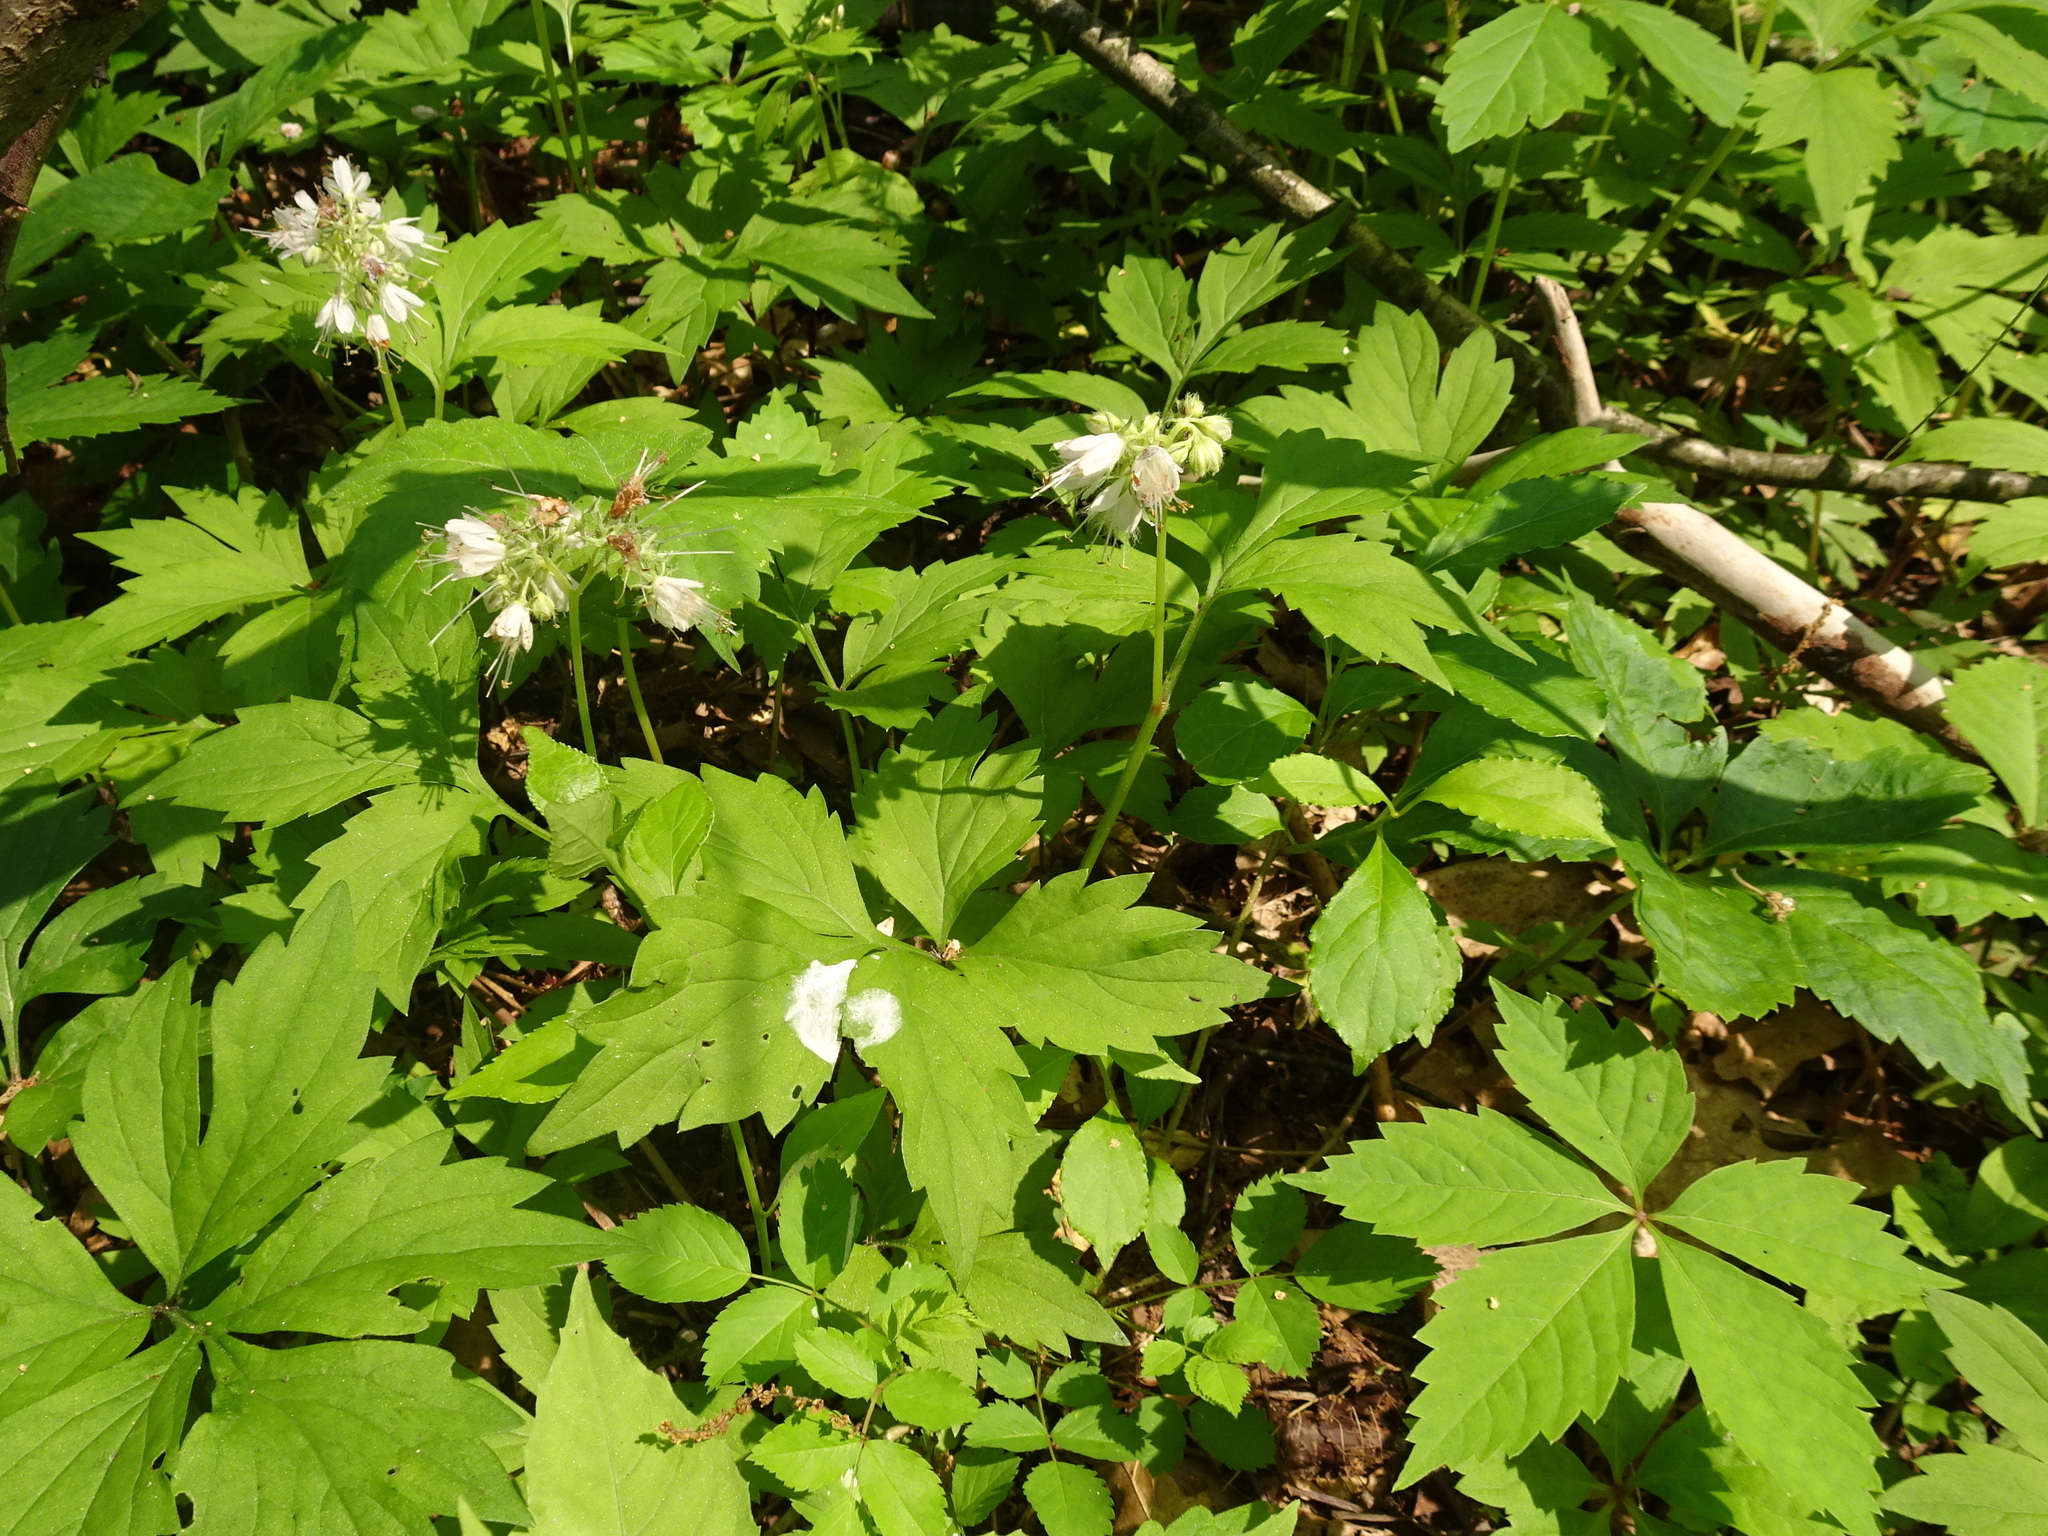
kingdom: Plantae
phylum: Tracheophyta
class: Magnoliopsida
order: Boraginales
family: Hydrophyllaceae
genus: Hydrophyllum
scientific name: Hydrophyllum virginianum
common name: Virginia waterleaf
